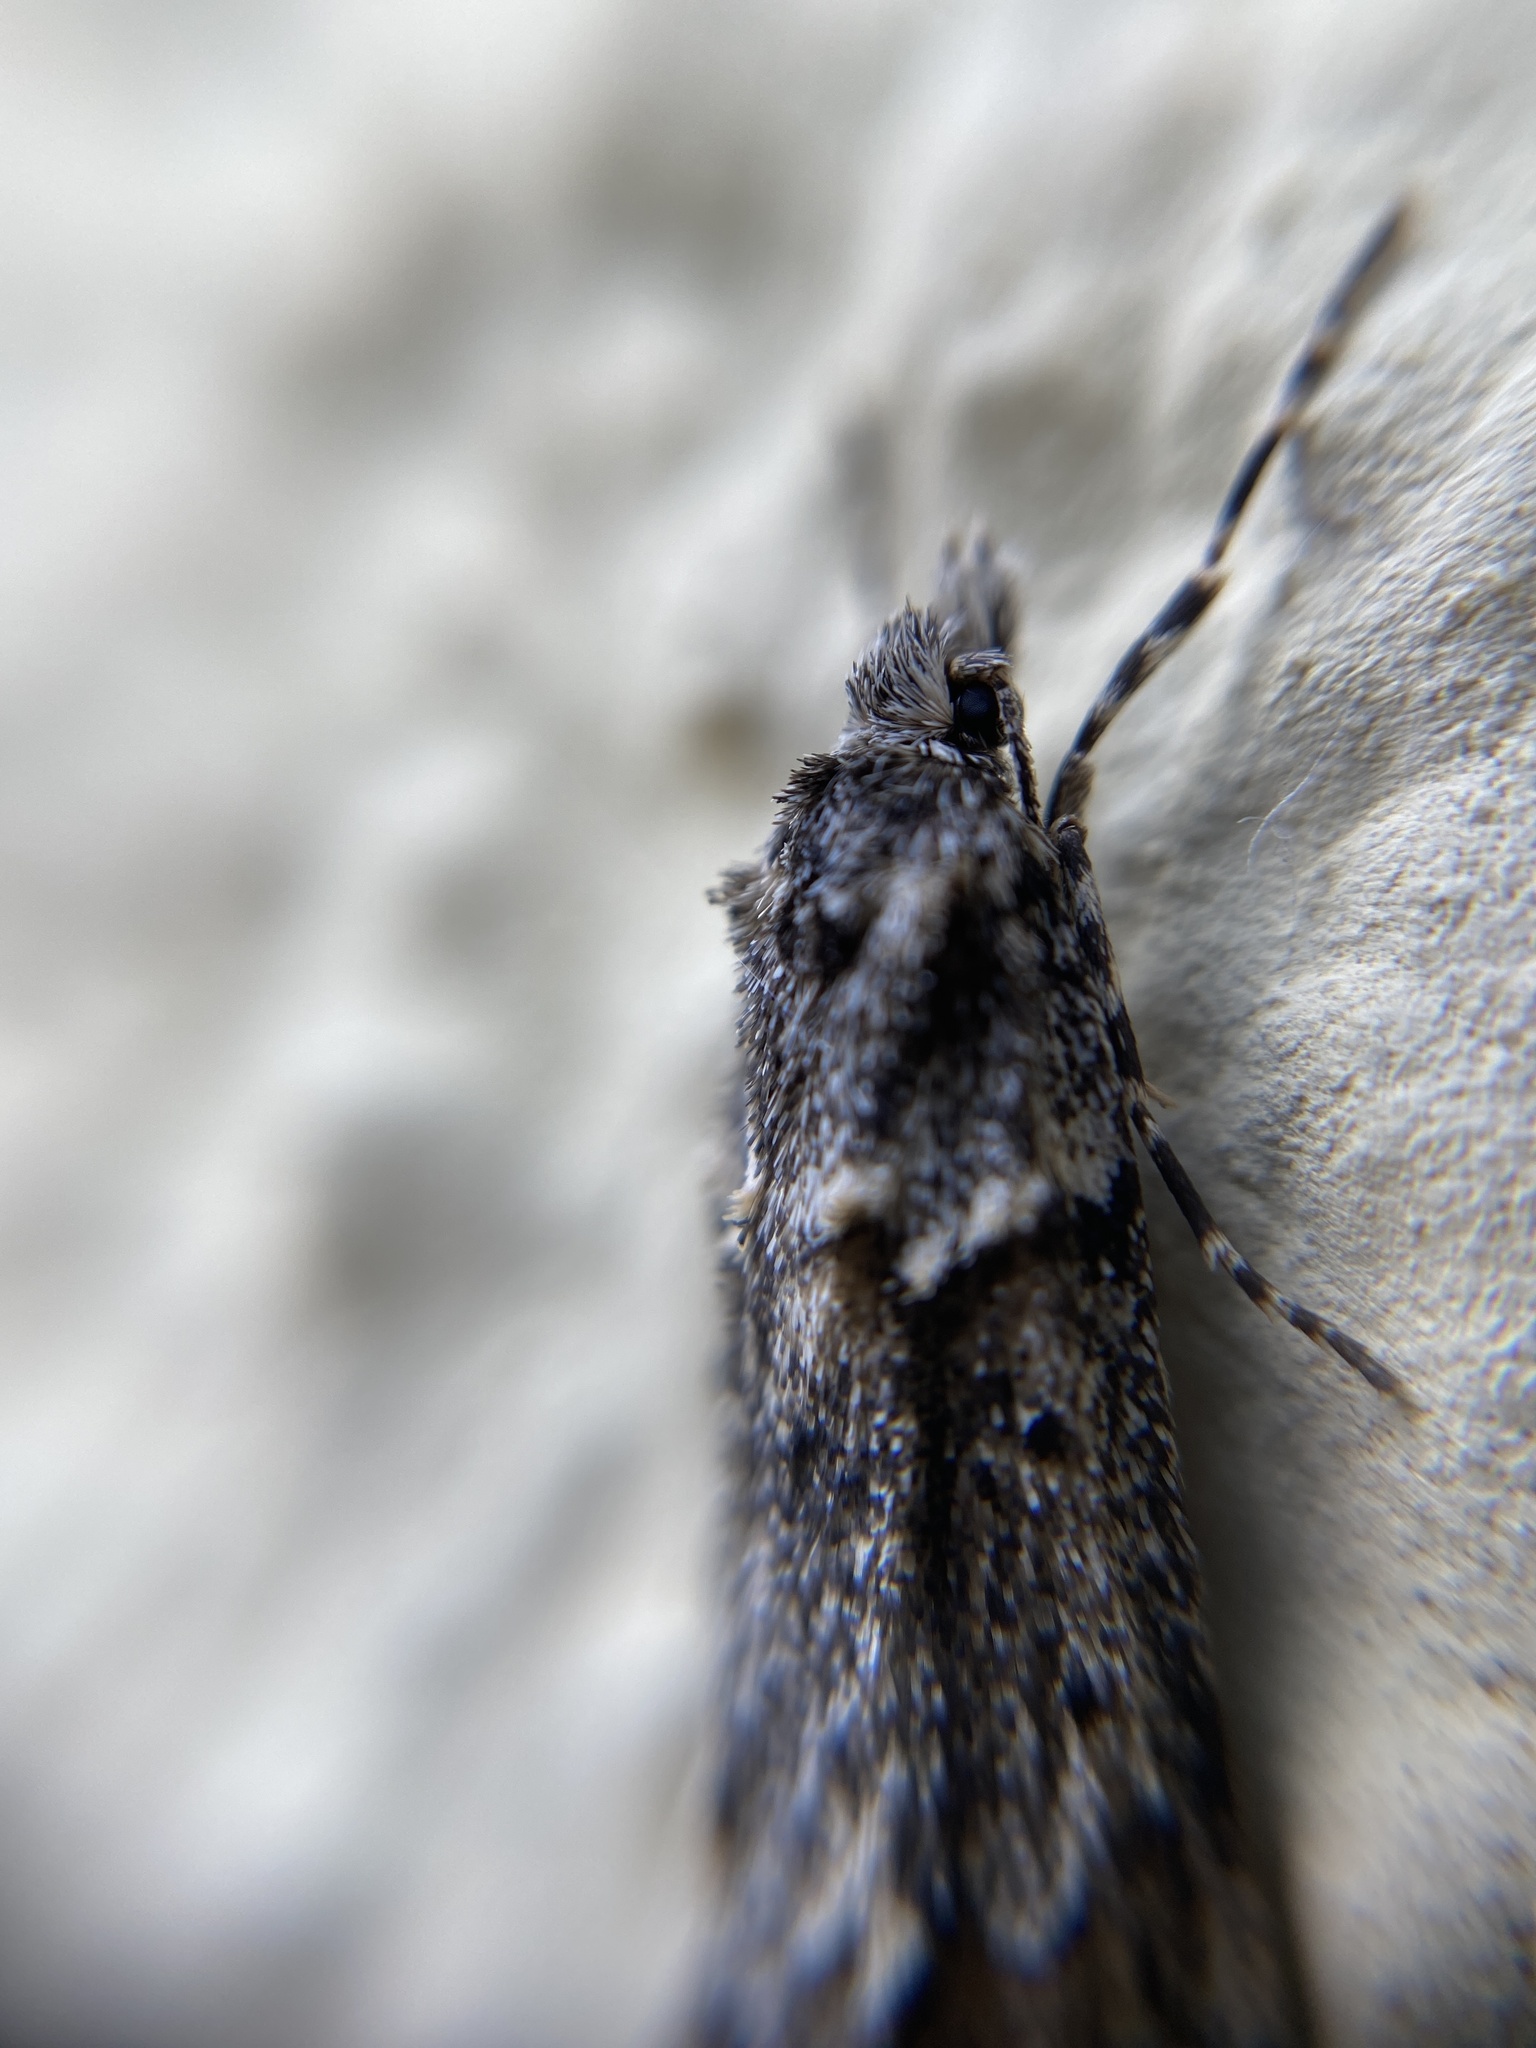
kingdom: Animalia
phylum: Arthropoda
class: Insecta
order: Lepidoptera
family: Lypusidae
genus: Diurnea
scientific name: Diurnea fagella
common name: March tubic
